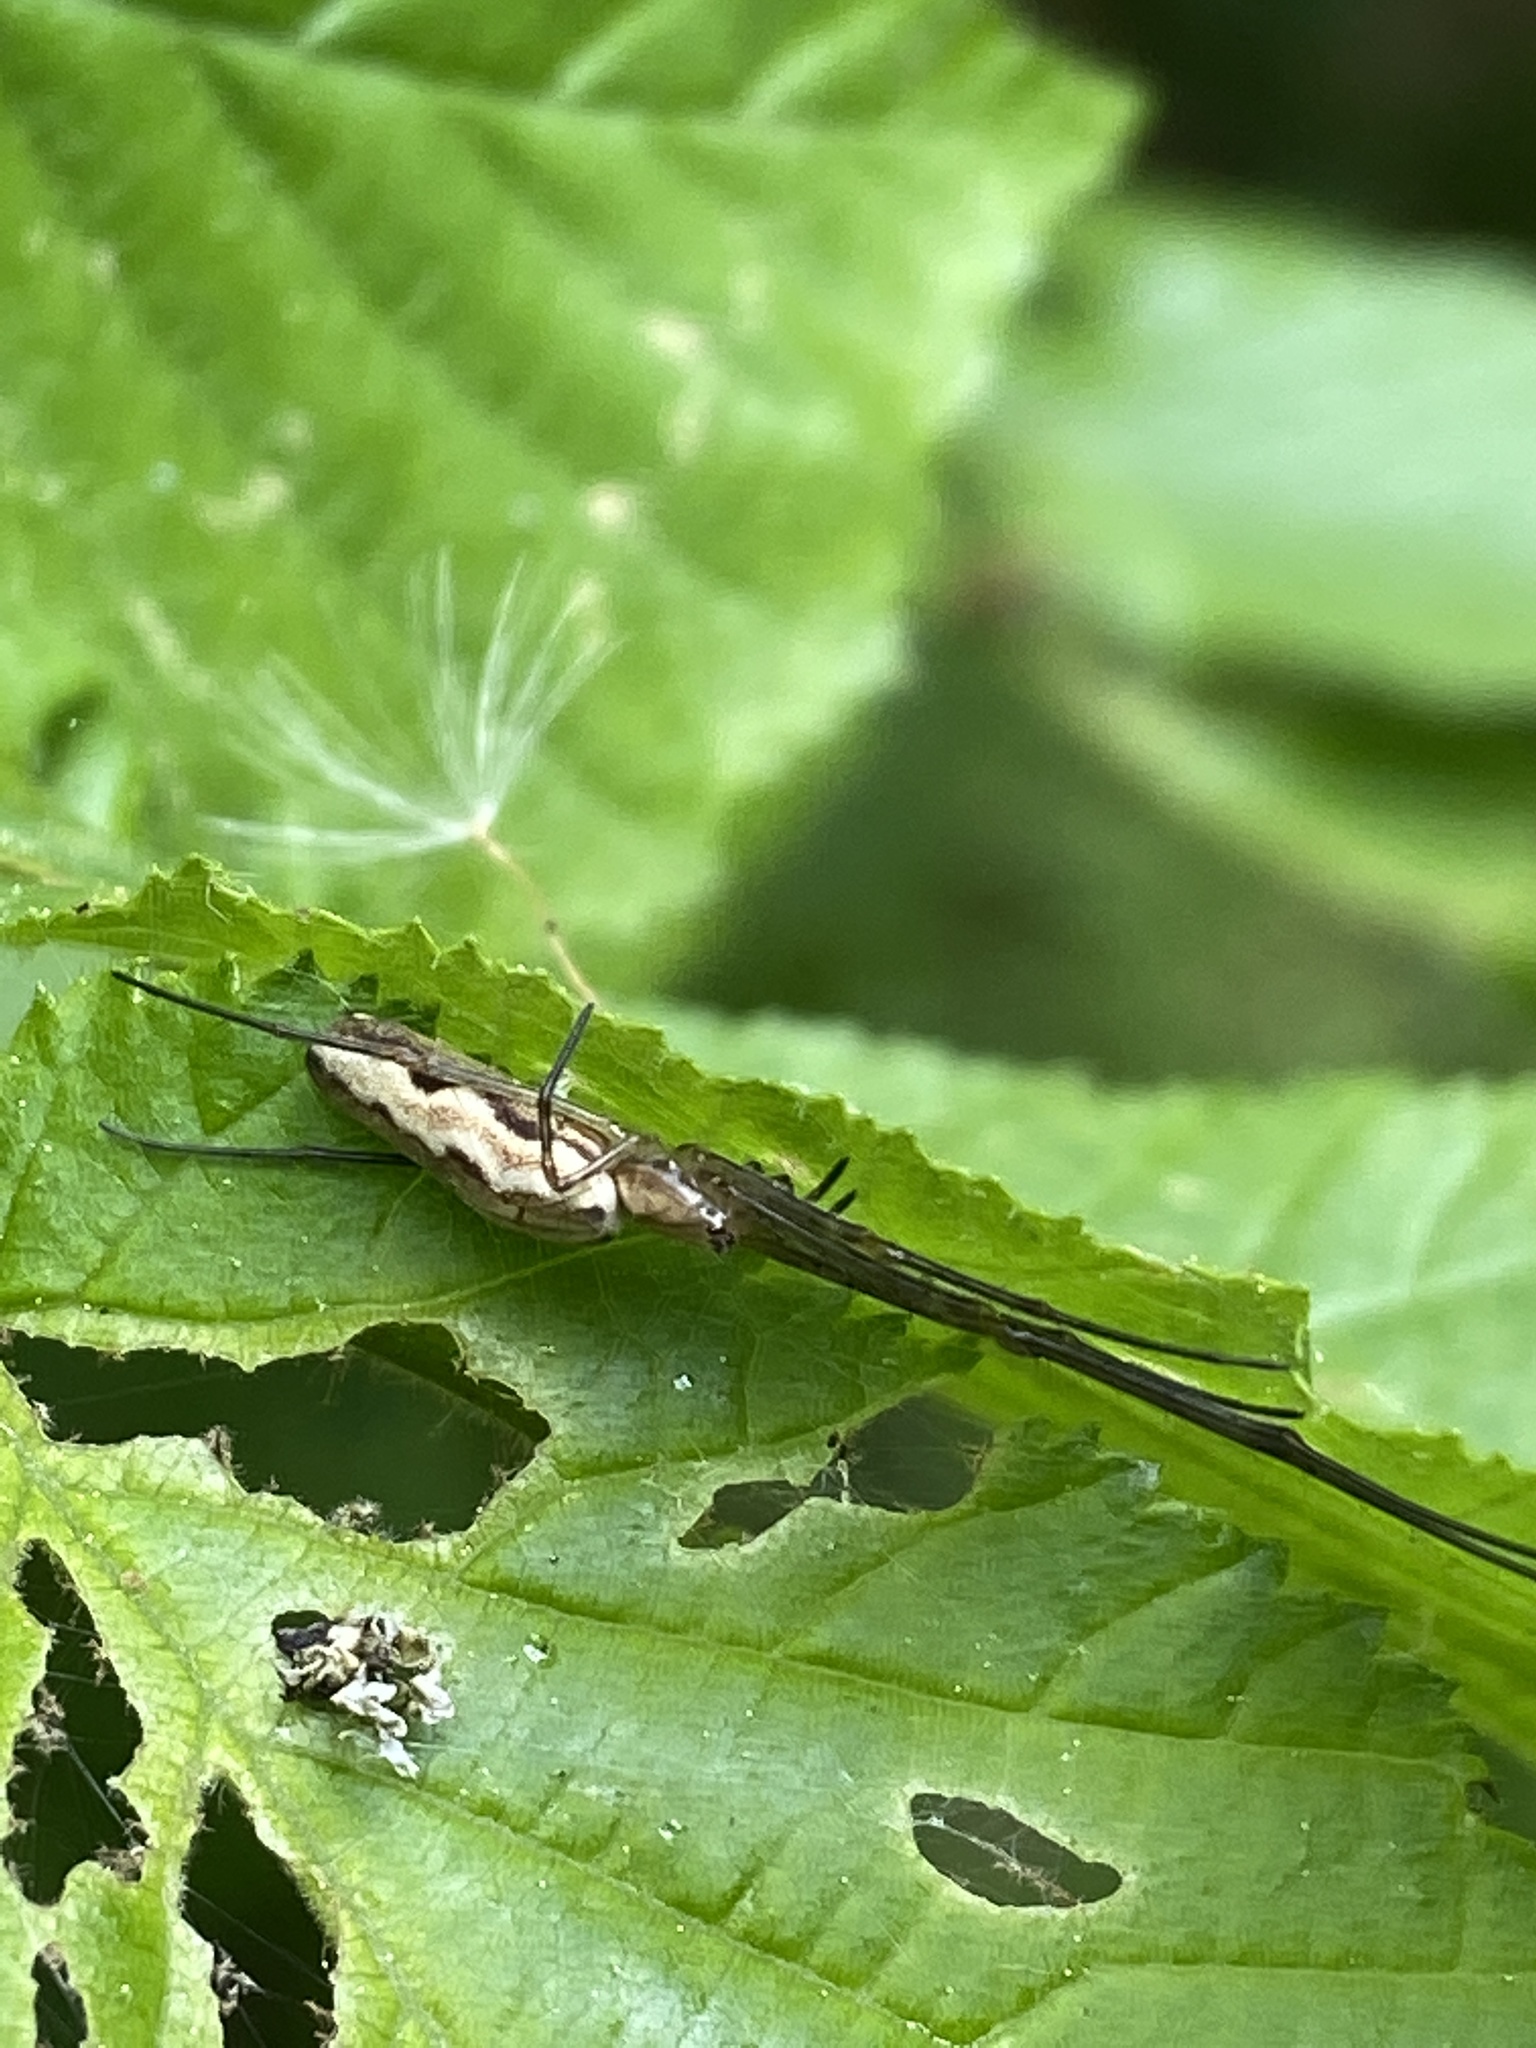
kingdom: Animalia
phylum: Arthropoda
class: Arachnida
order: Araneae
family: Tetragnathidae
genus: Tetragnatha
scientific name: Tetragnatha extensa
